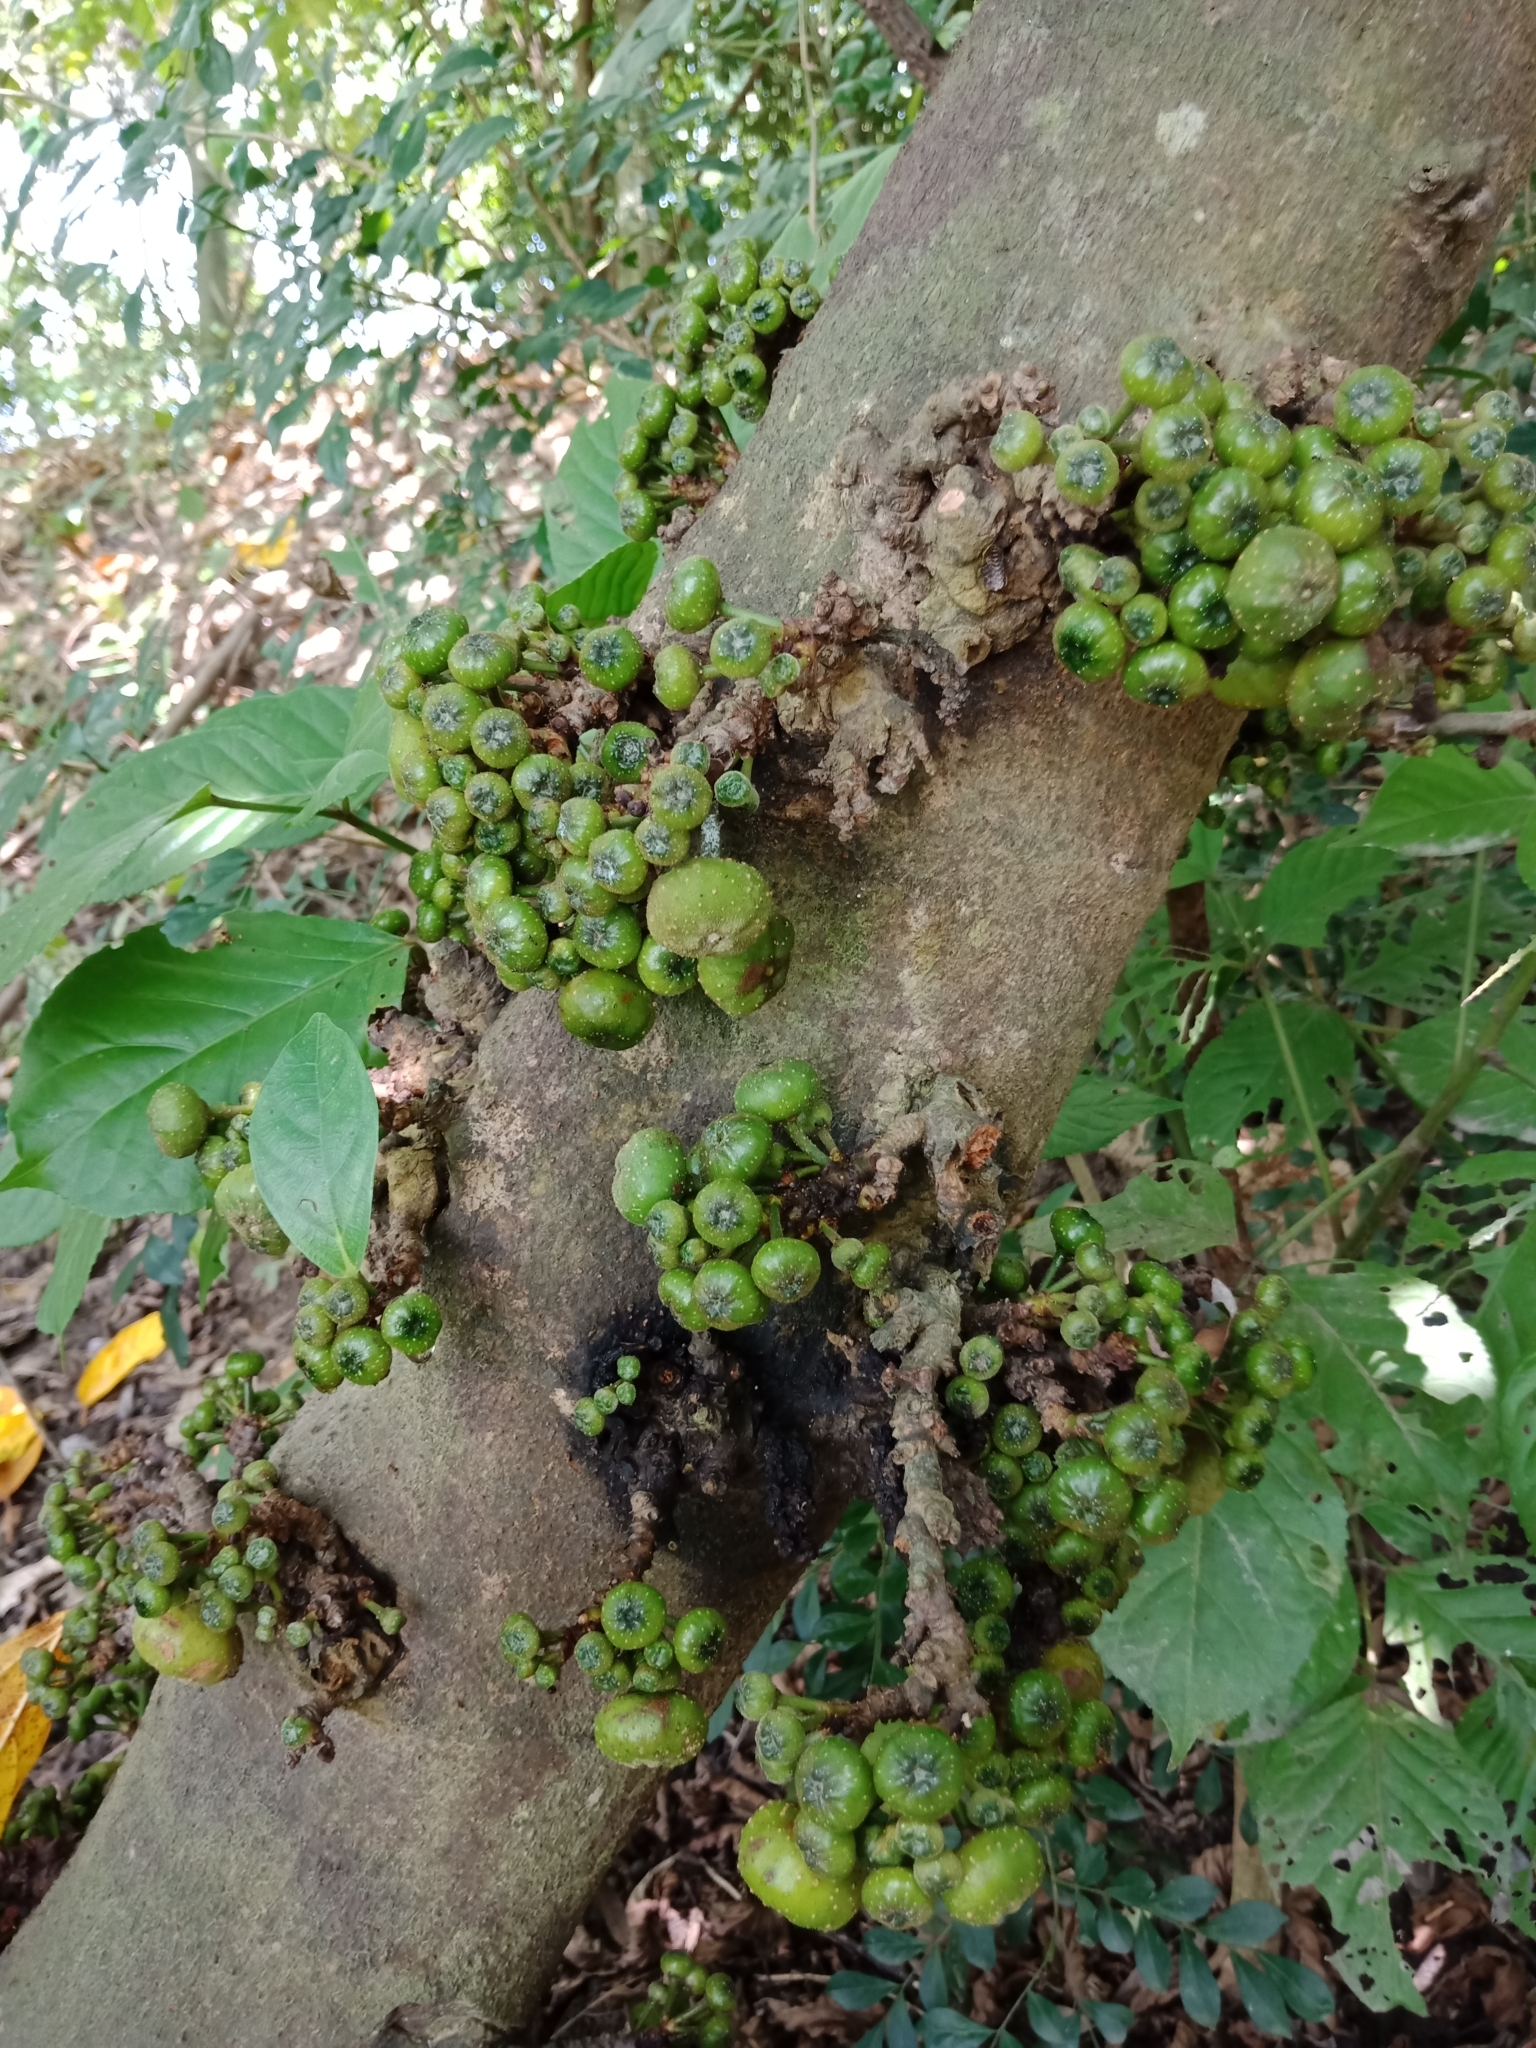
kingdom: Plantae
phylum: Tracheophyta
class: Magnoliopsida
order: Rosales
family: Moraceae
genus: Ficus
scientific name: Ficus fistulosa
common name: Figs
